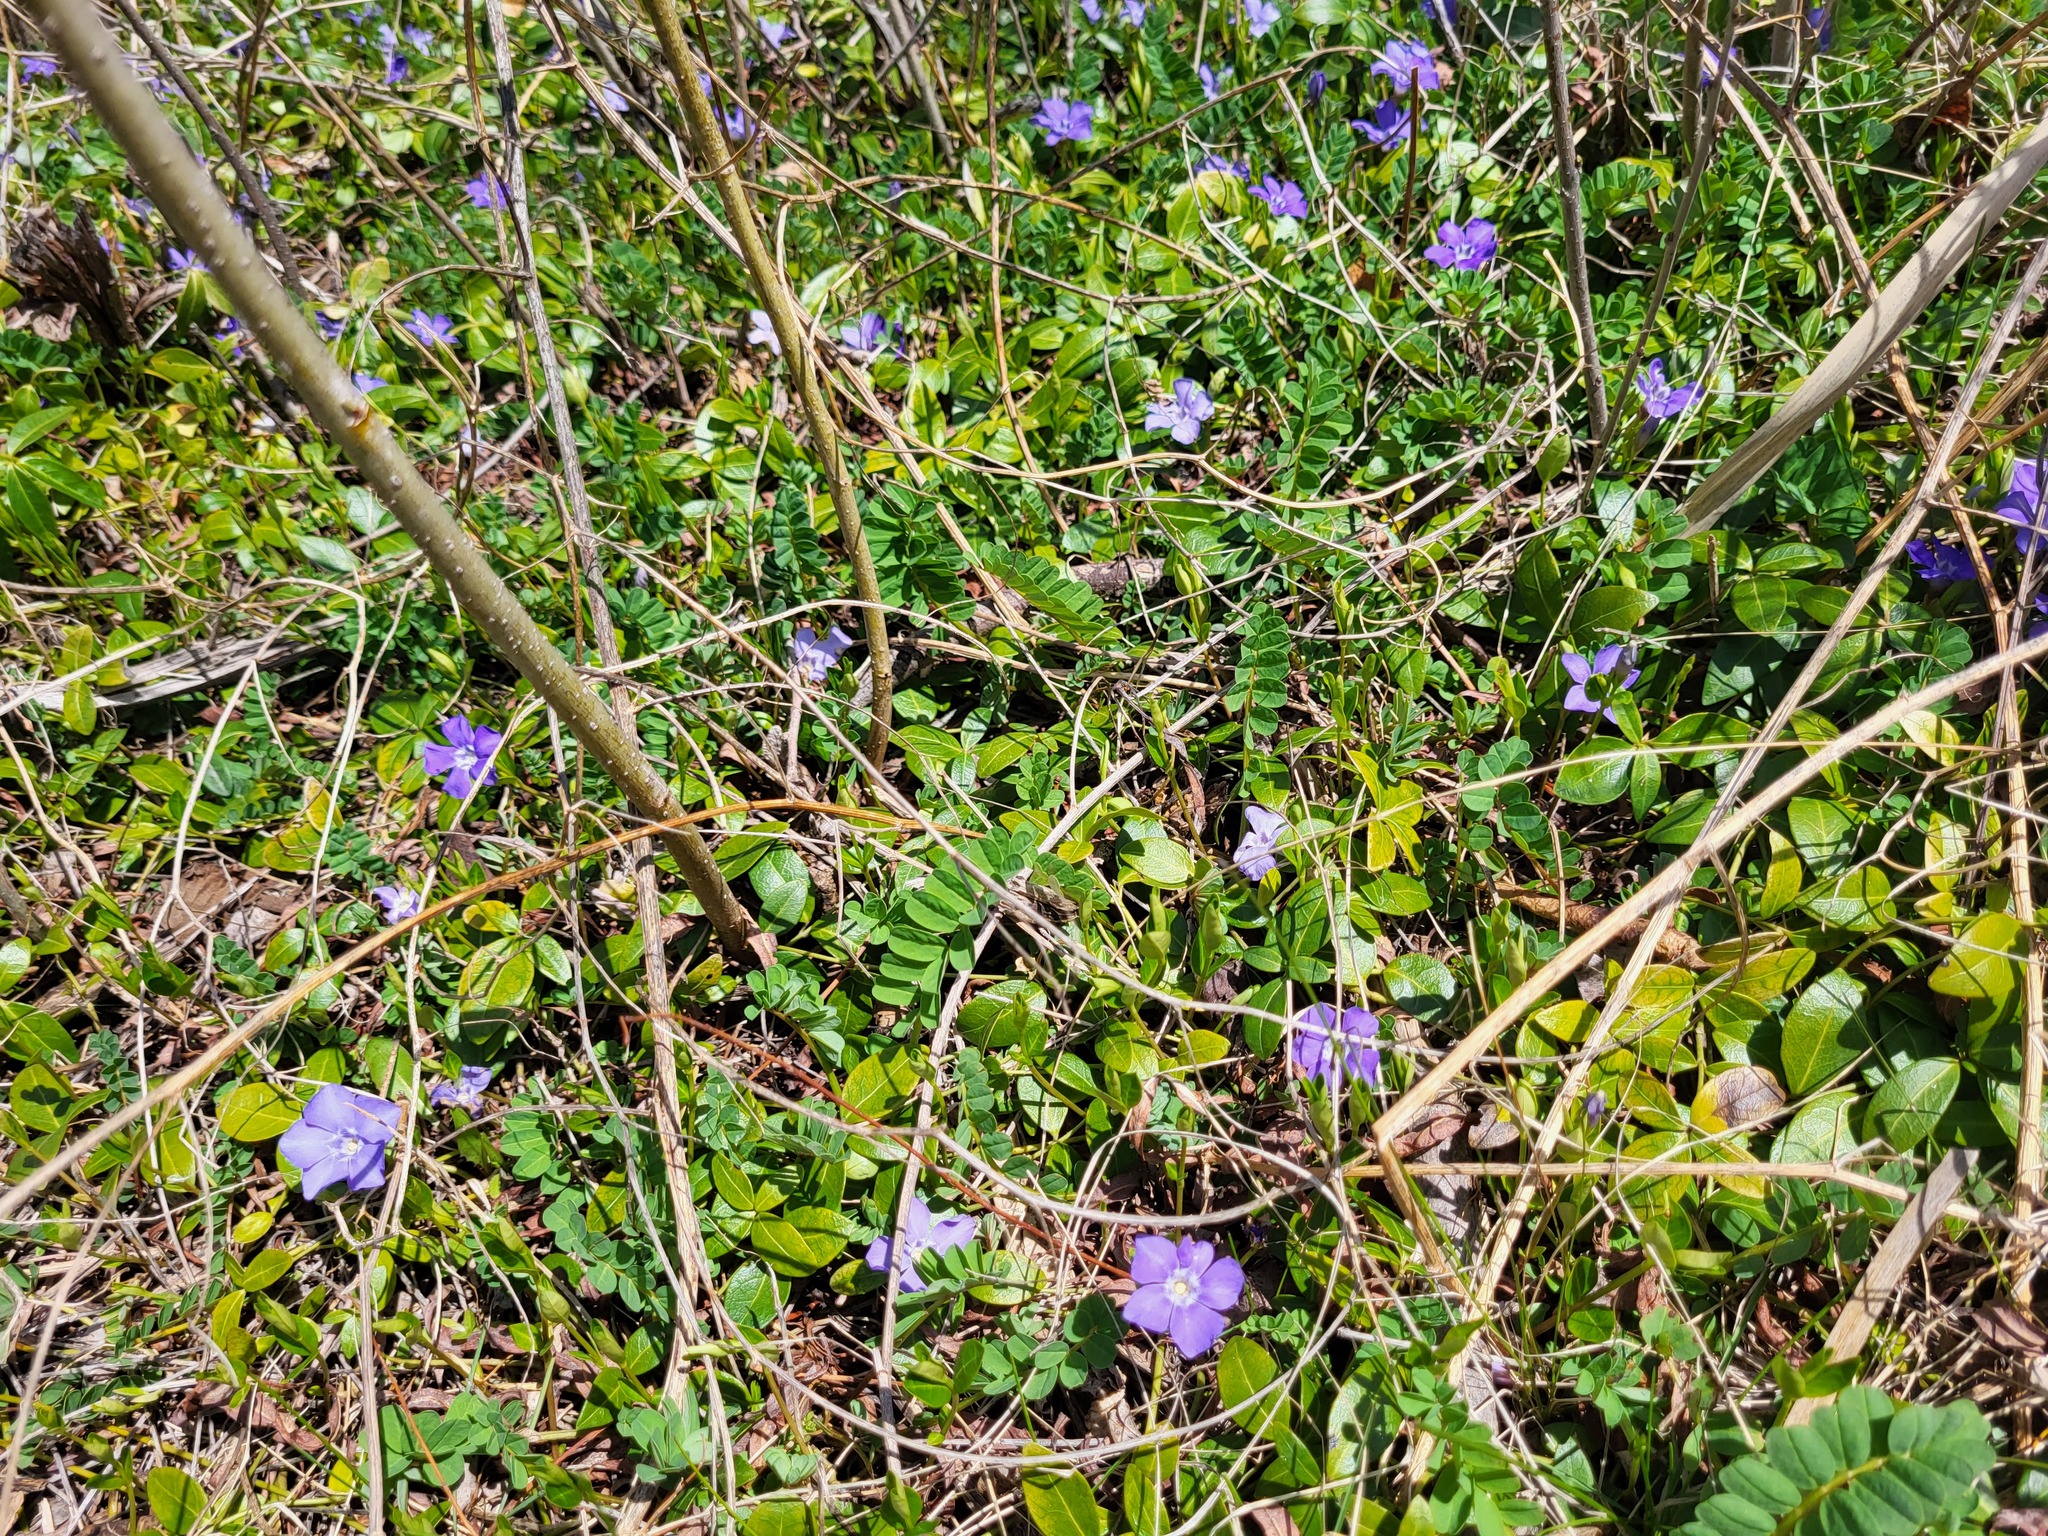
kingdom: Plantae
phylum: Tracheophyta
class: Magnoliopsida
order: Gentianales
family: Apocynaceae
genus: Vinca
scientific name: Vinca minor
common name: Lesser periwinkle
